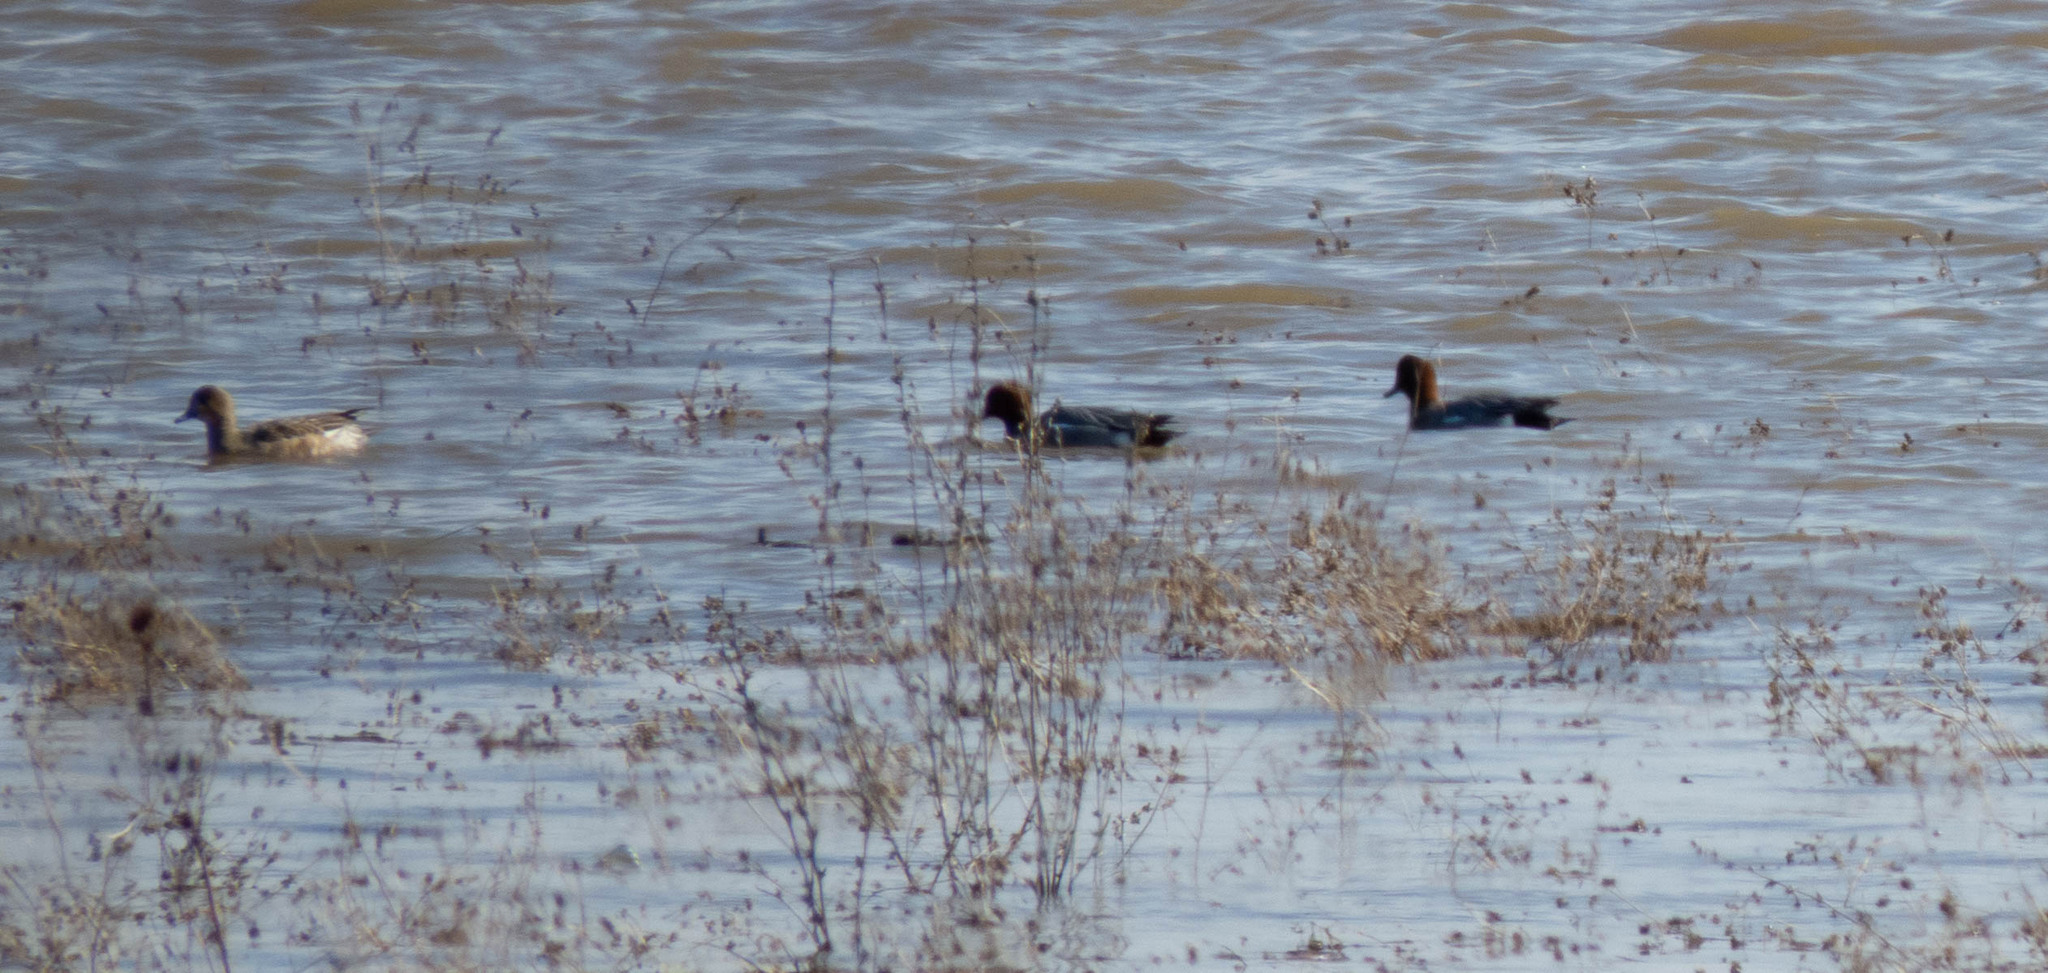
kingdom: Animalia
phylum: Chordata
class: Aves
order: Anseriformes
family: Anatidae
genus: Mareca
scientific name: Mareca penelope
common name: Eurasian wigeon
